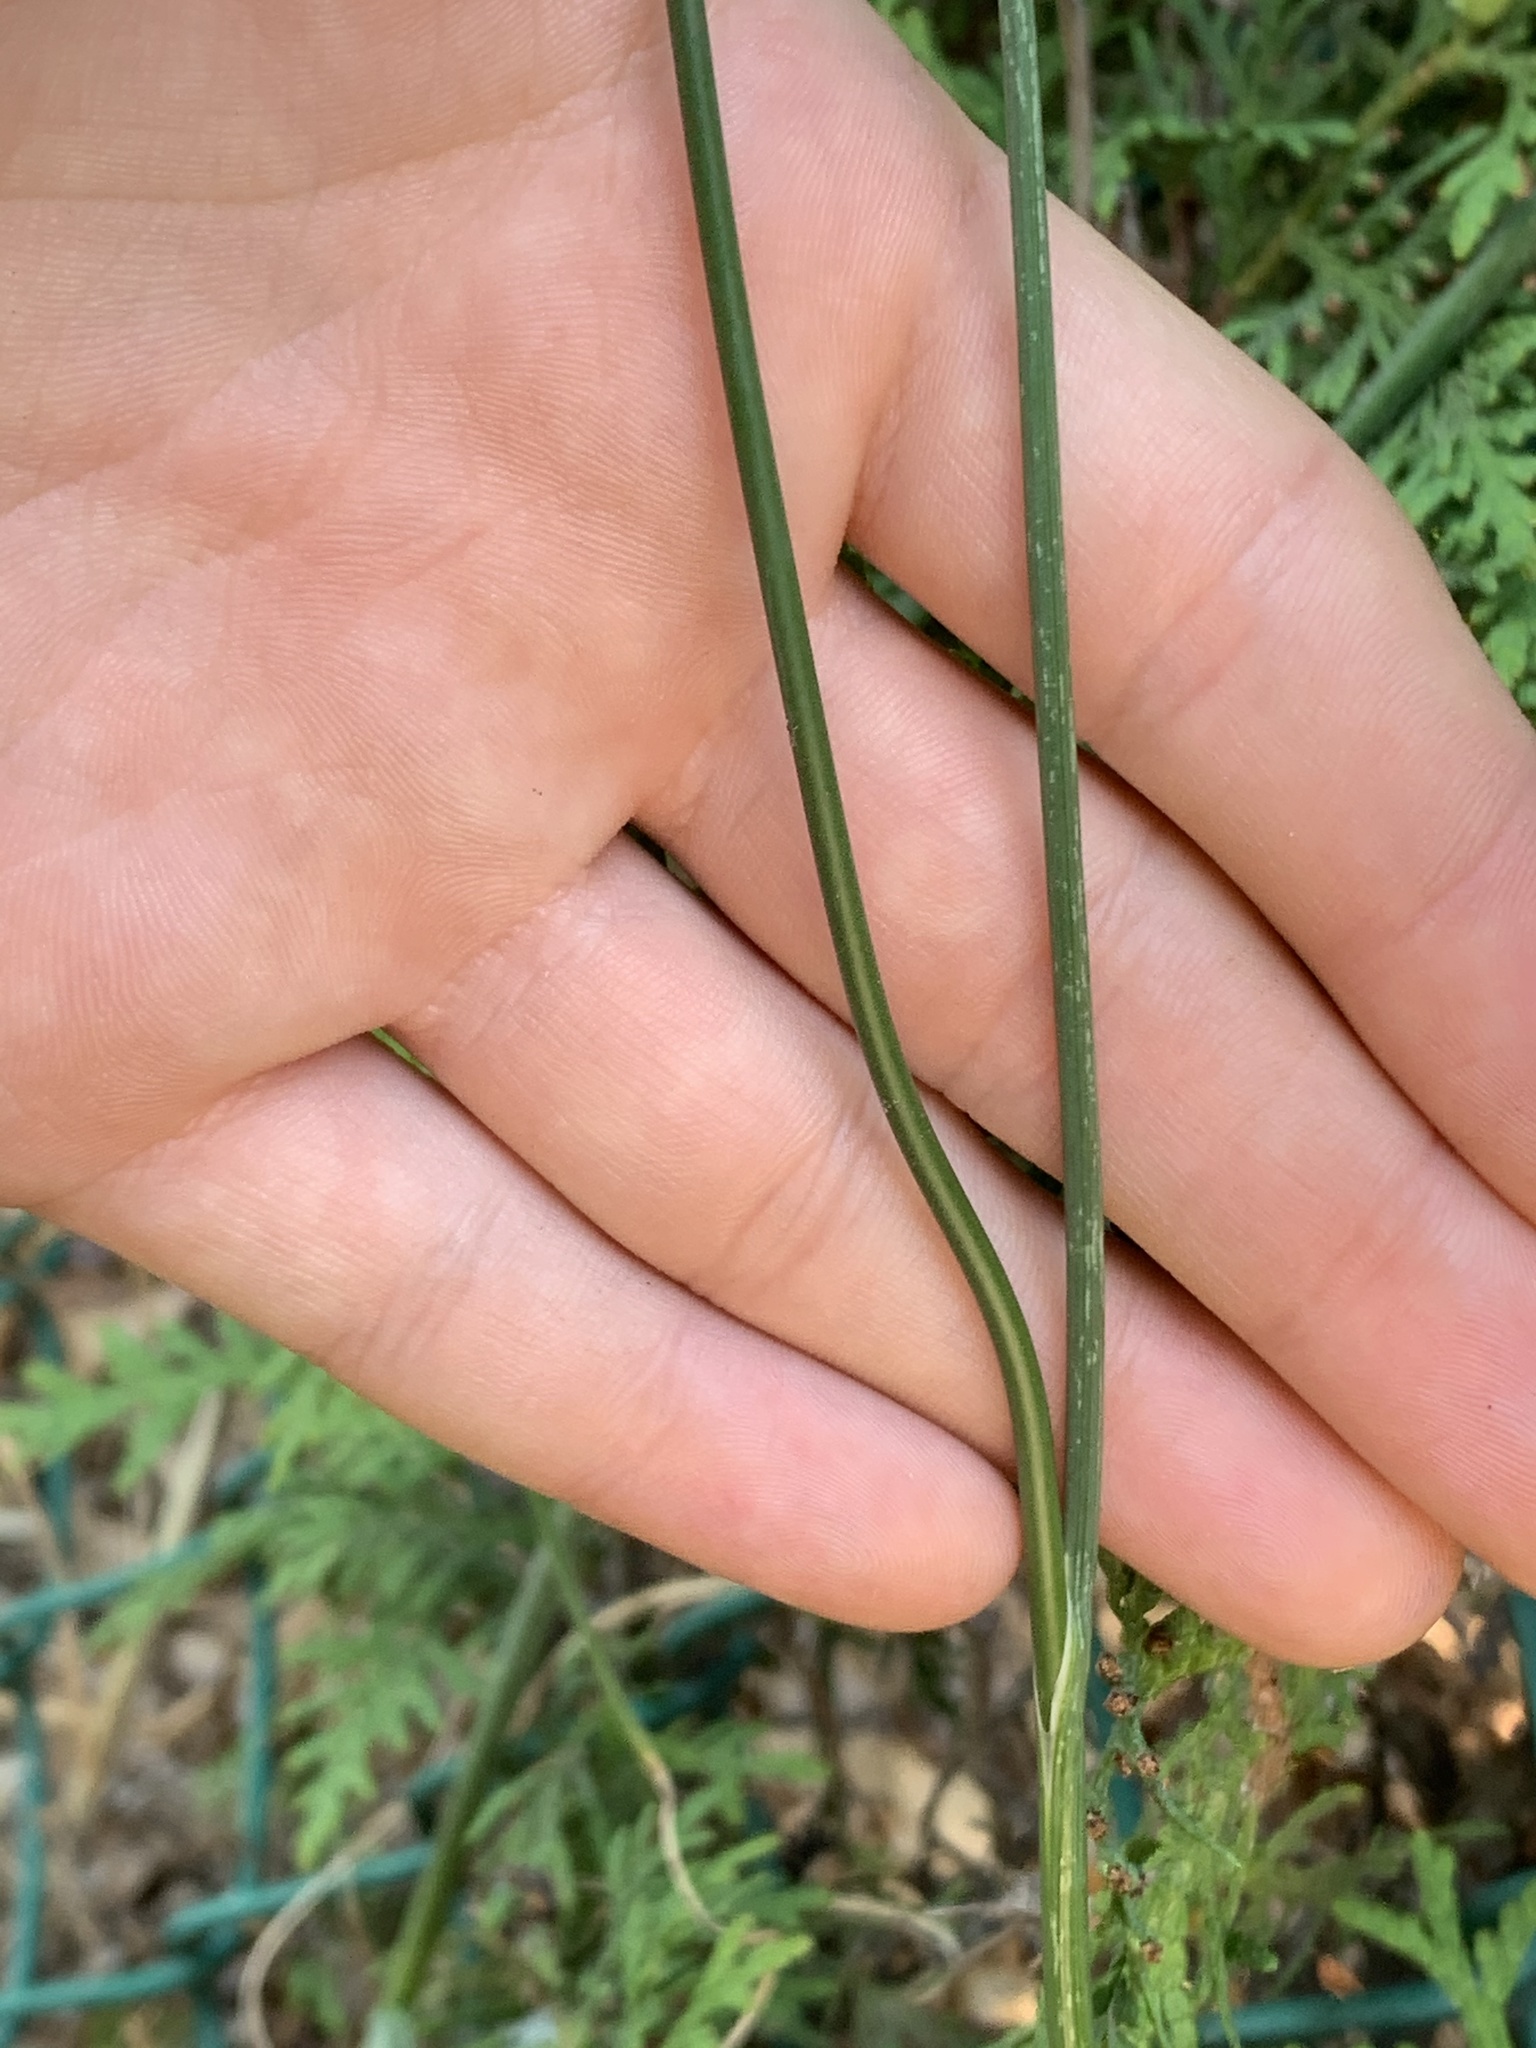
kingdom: Plantae
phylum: Tracheophyta
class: Liliopsida
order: Asparagales
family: Amaryllidaceae
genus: Allium
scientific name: Allium vineale
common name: Crow garlic
